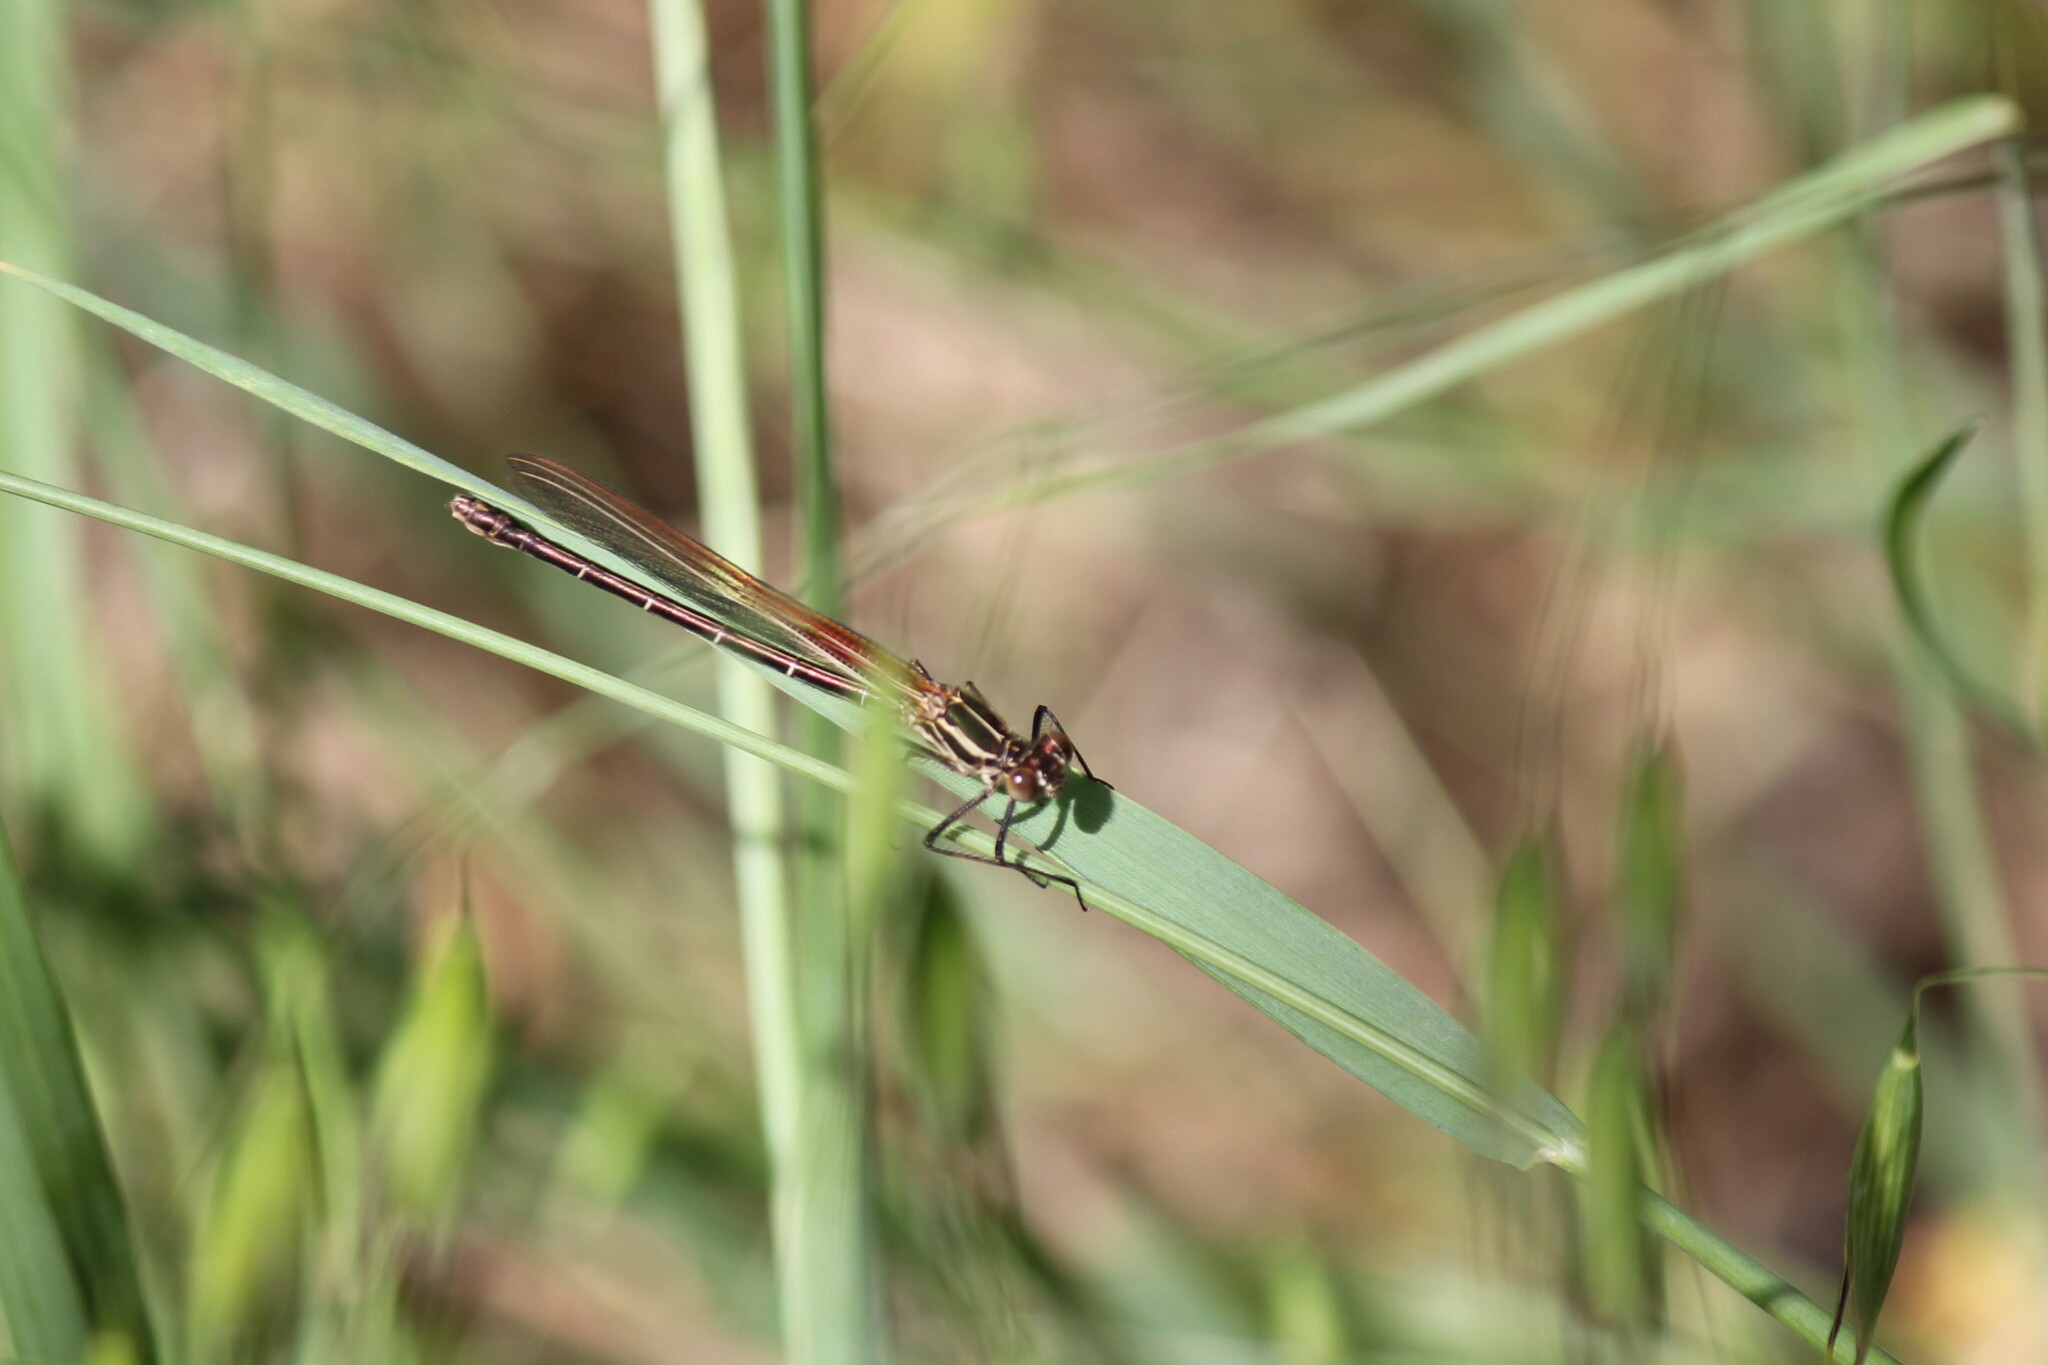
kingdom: Animalia
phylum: Arthropoda
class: Insecta
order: Odonata
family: Calopterygidae
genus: Hetaerina
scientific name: Hetaerina americana
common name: American rubyspot
